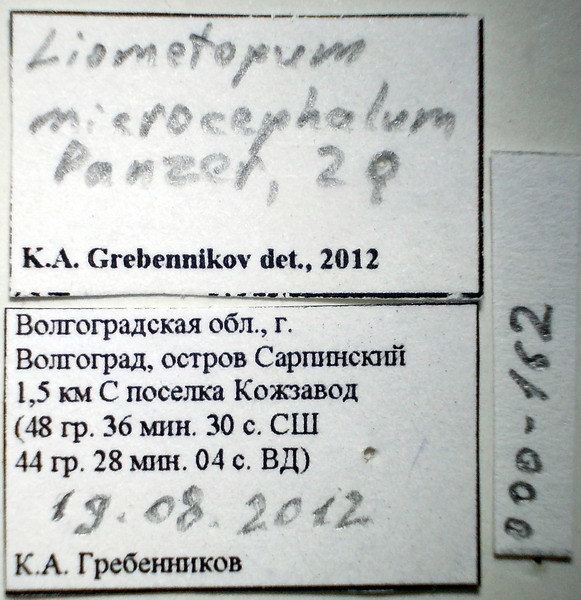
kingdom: Animalia
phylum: Arthropoda
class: Insecta
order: Hymenoptera
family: Formicidae
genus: Liometopum
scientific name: Liometopum microcephalum
